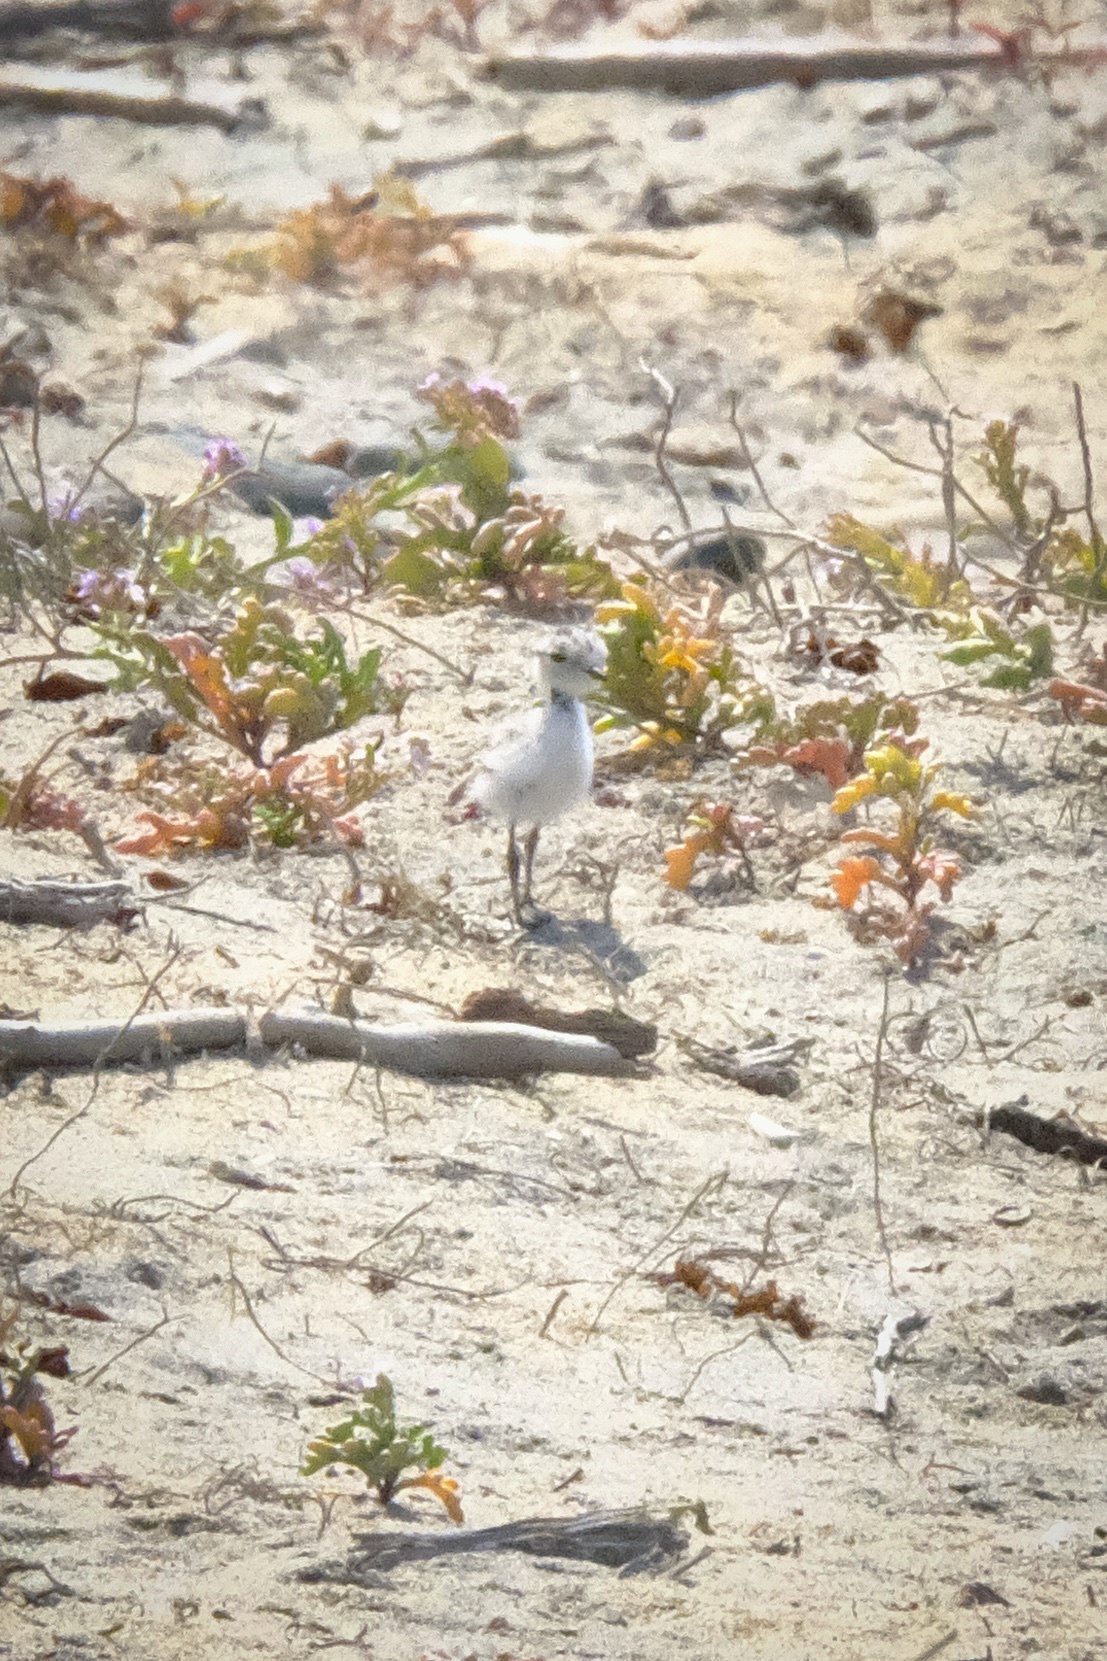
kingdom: Animalia
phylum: Chordata
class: Aves
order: Charadriiformes
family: Charadriidae
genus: Anarhynchus
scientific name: Anarhynchus
